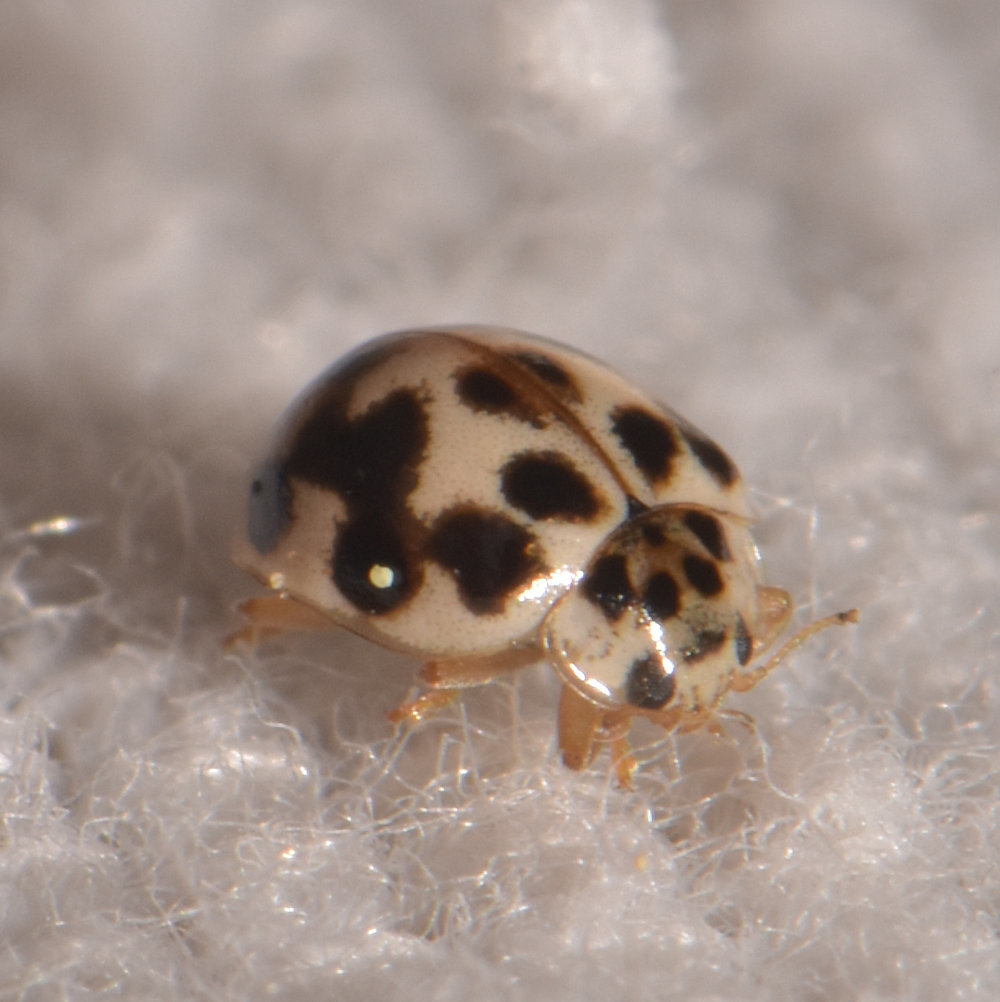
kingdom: Animalia
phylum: Arthropoda
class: Insecta
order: Coleoptera
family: Coccinellidae
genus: Psyllobora
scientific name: Psyllobora vigintimaculata
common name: Ladybird beetle
